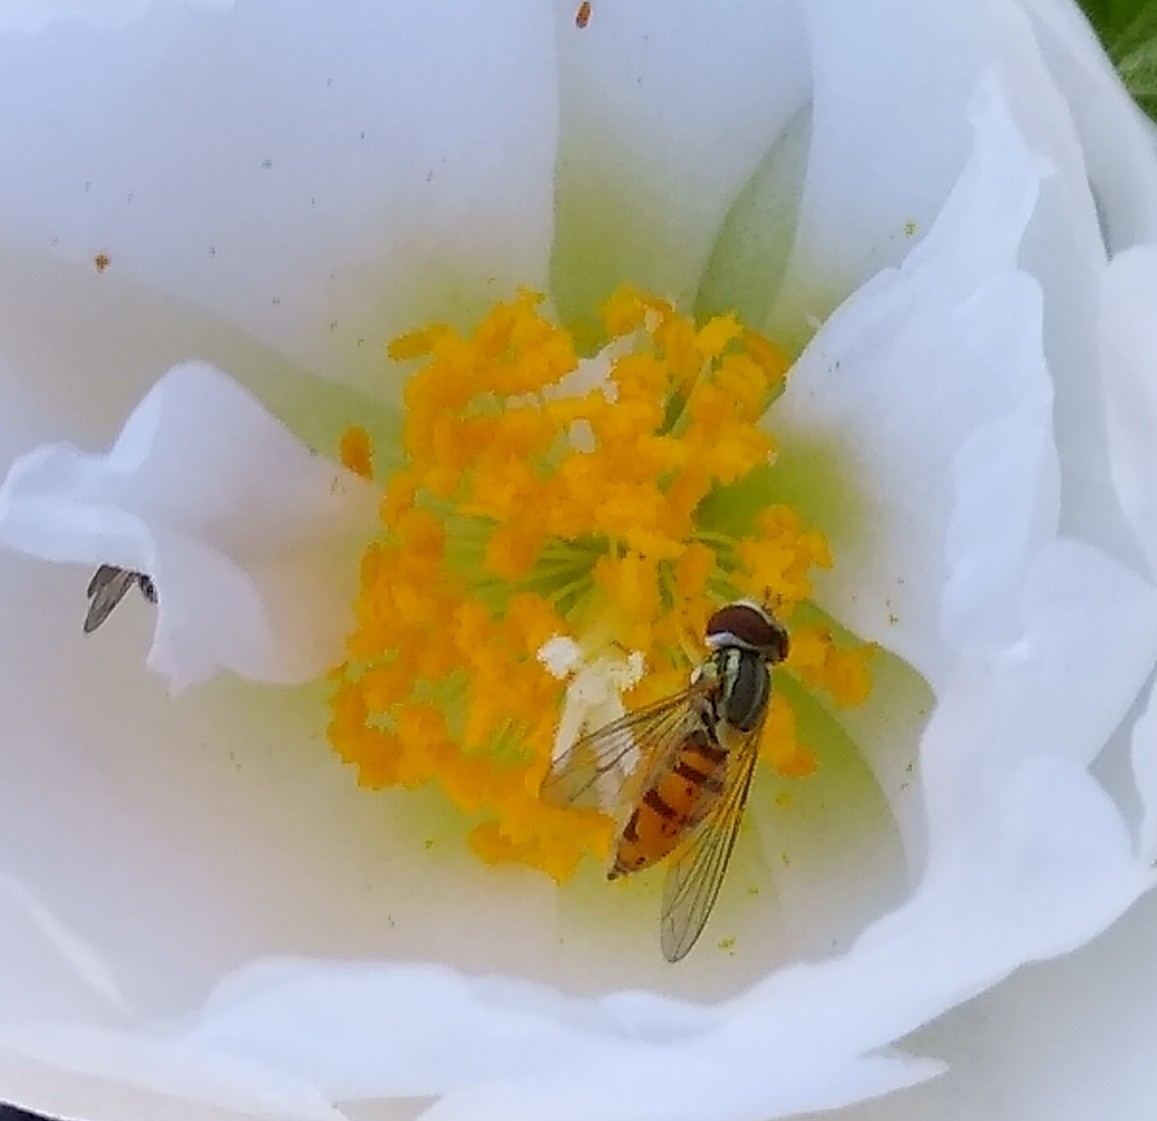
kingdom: Animalia
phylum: Arthropoda
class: Insecta
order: Diptera
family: Syrphidae
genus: Toxomerus
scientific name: Toxomerus marginatus
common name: Syrphid fly
